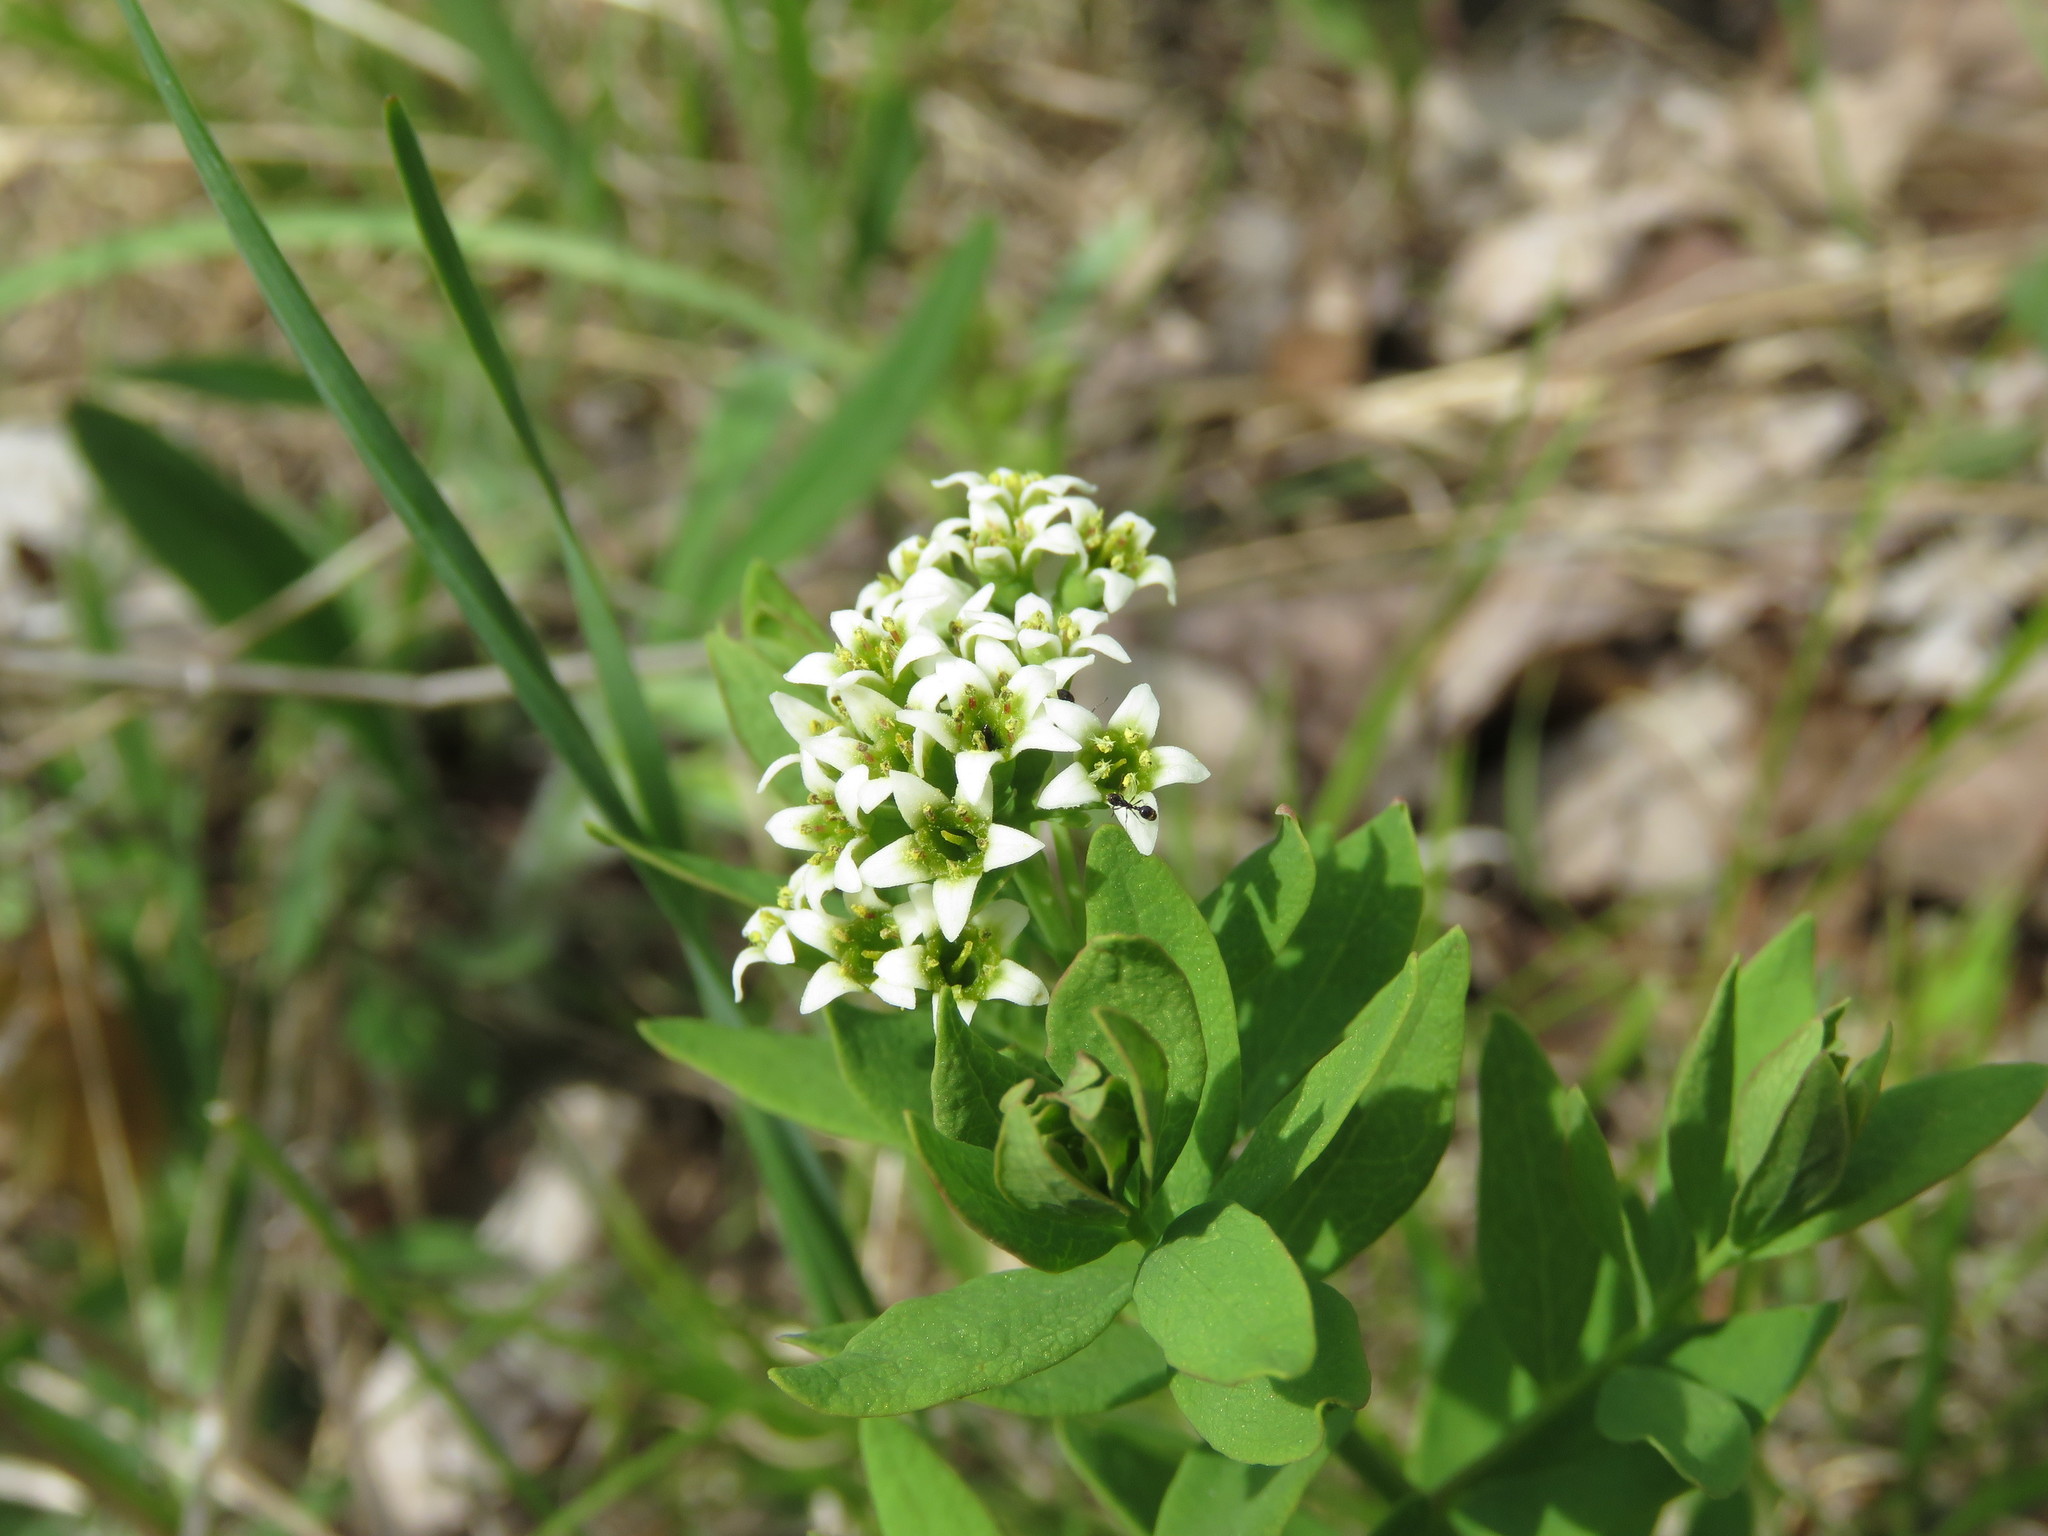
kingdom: Plantae
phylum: Tracheophyta
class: Magnoliopsida
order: Santalales
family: Comandraceae
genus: Comandra
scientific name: Comandra umbellata
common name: Bastard toadflax
